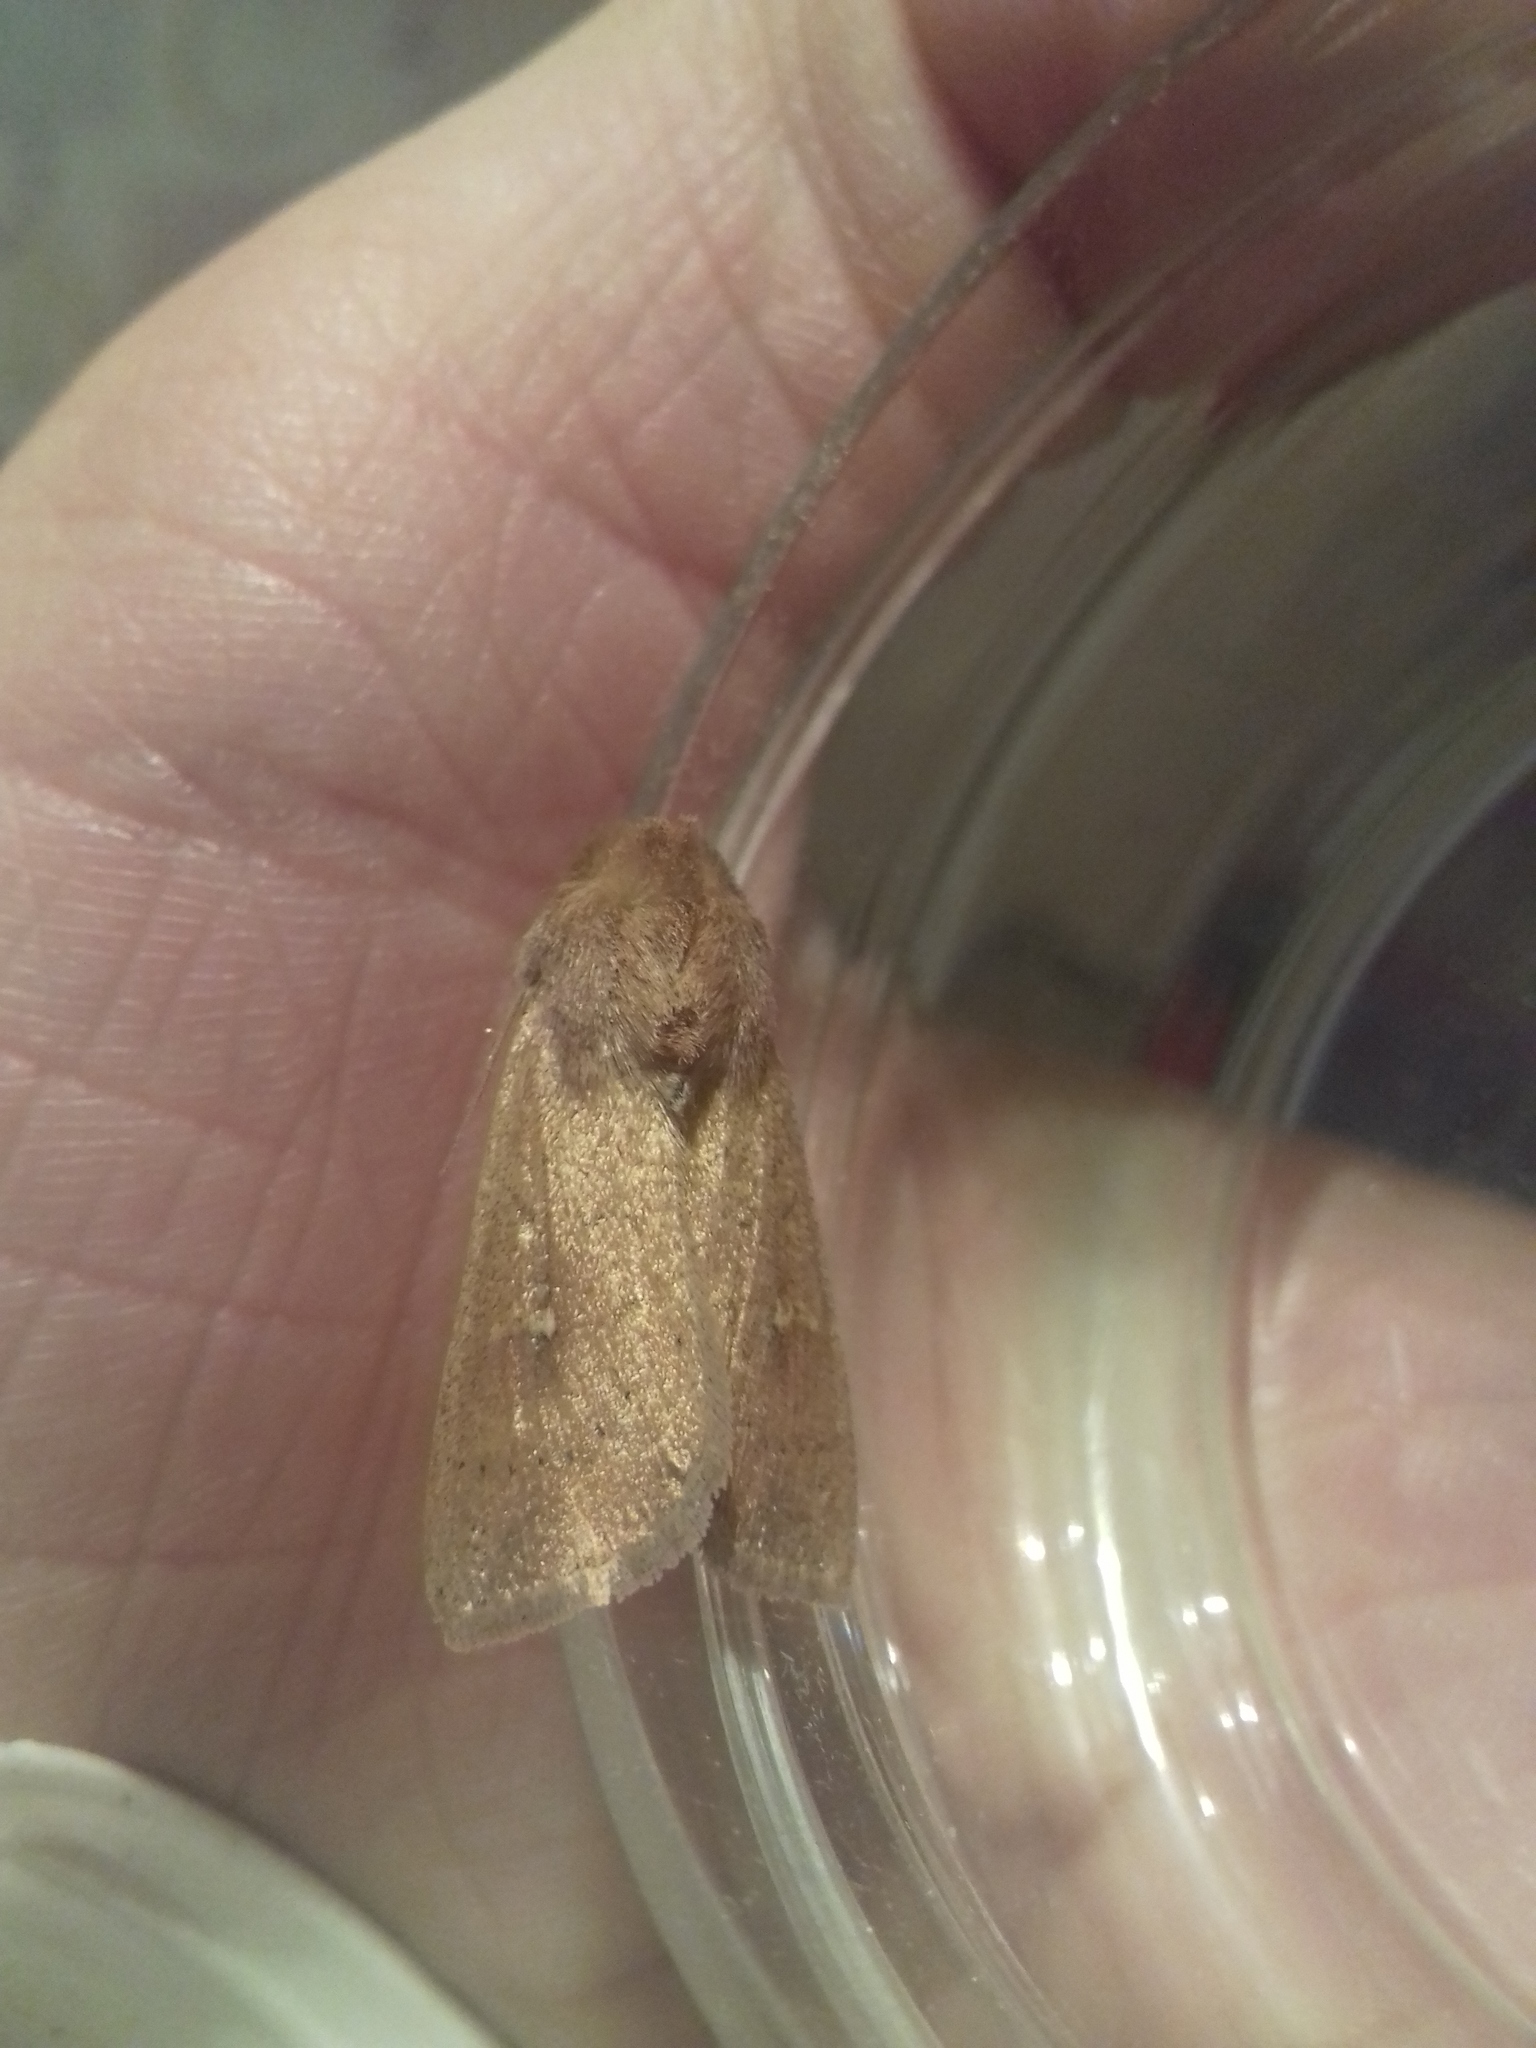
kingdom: Animalia
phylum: Arthropoda
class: Insecta
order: Lepidoptera
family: Noctuidae
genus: Mythimna
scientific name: Mythimna ferrago
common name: Clay
